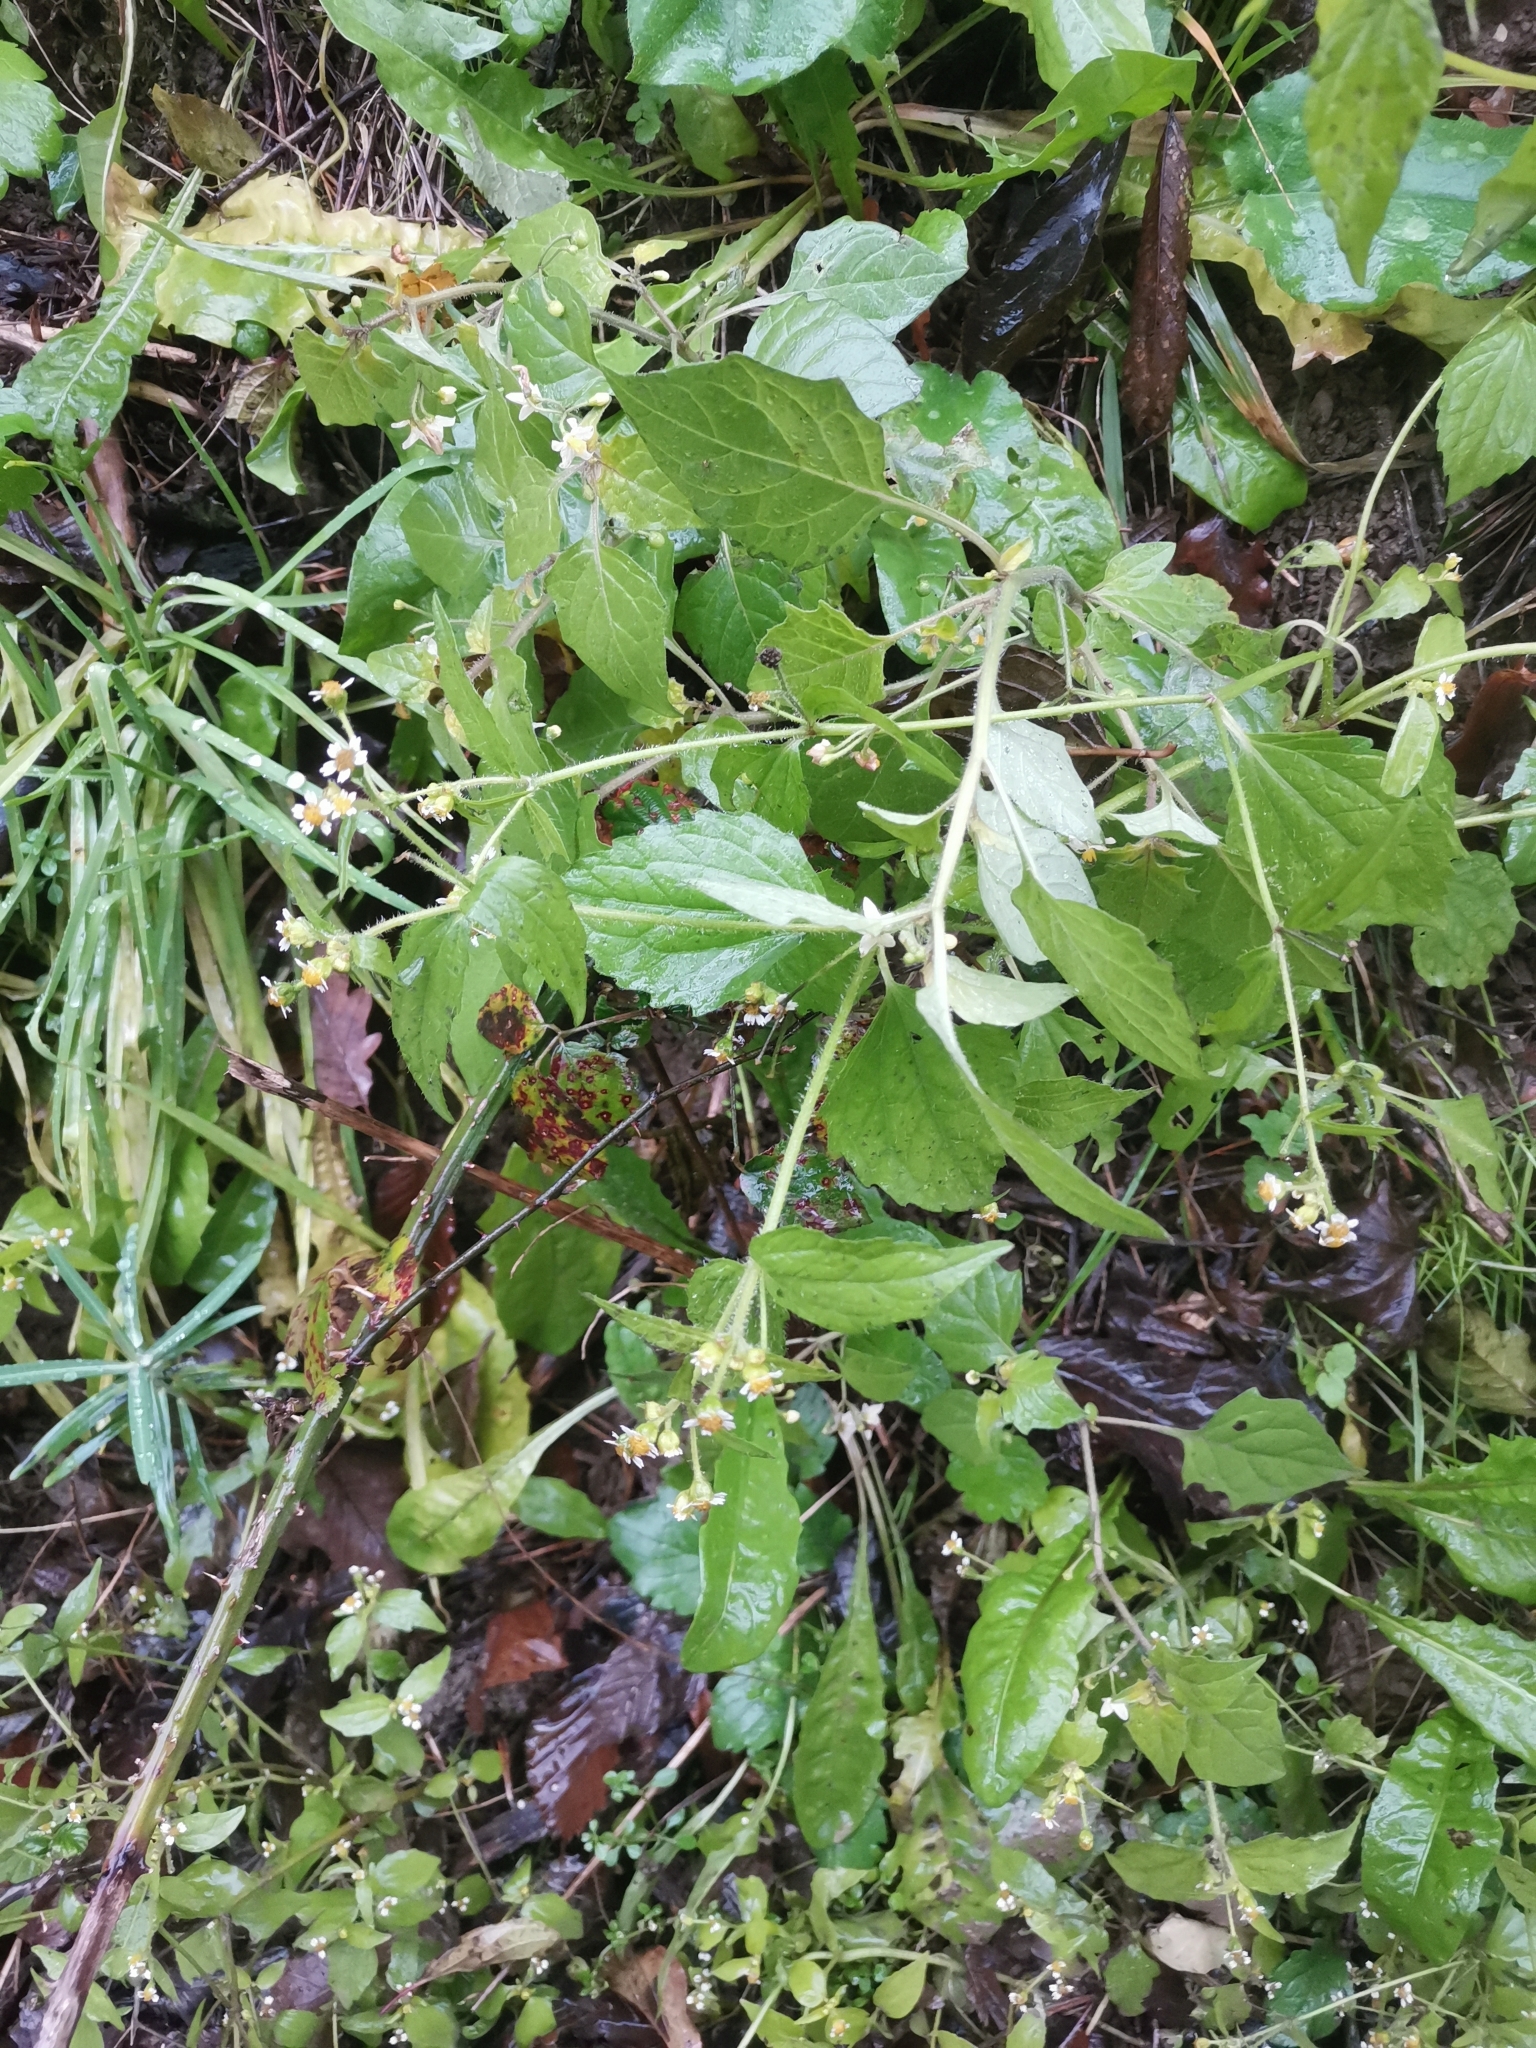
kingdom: Plantae
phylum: Tracheophyta
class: Magnoliopsida
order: Asterales
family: Asteraceae
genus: Galinsoga
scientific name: Galinsoga quadriradiata
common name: Shaggy soldier
